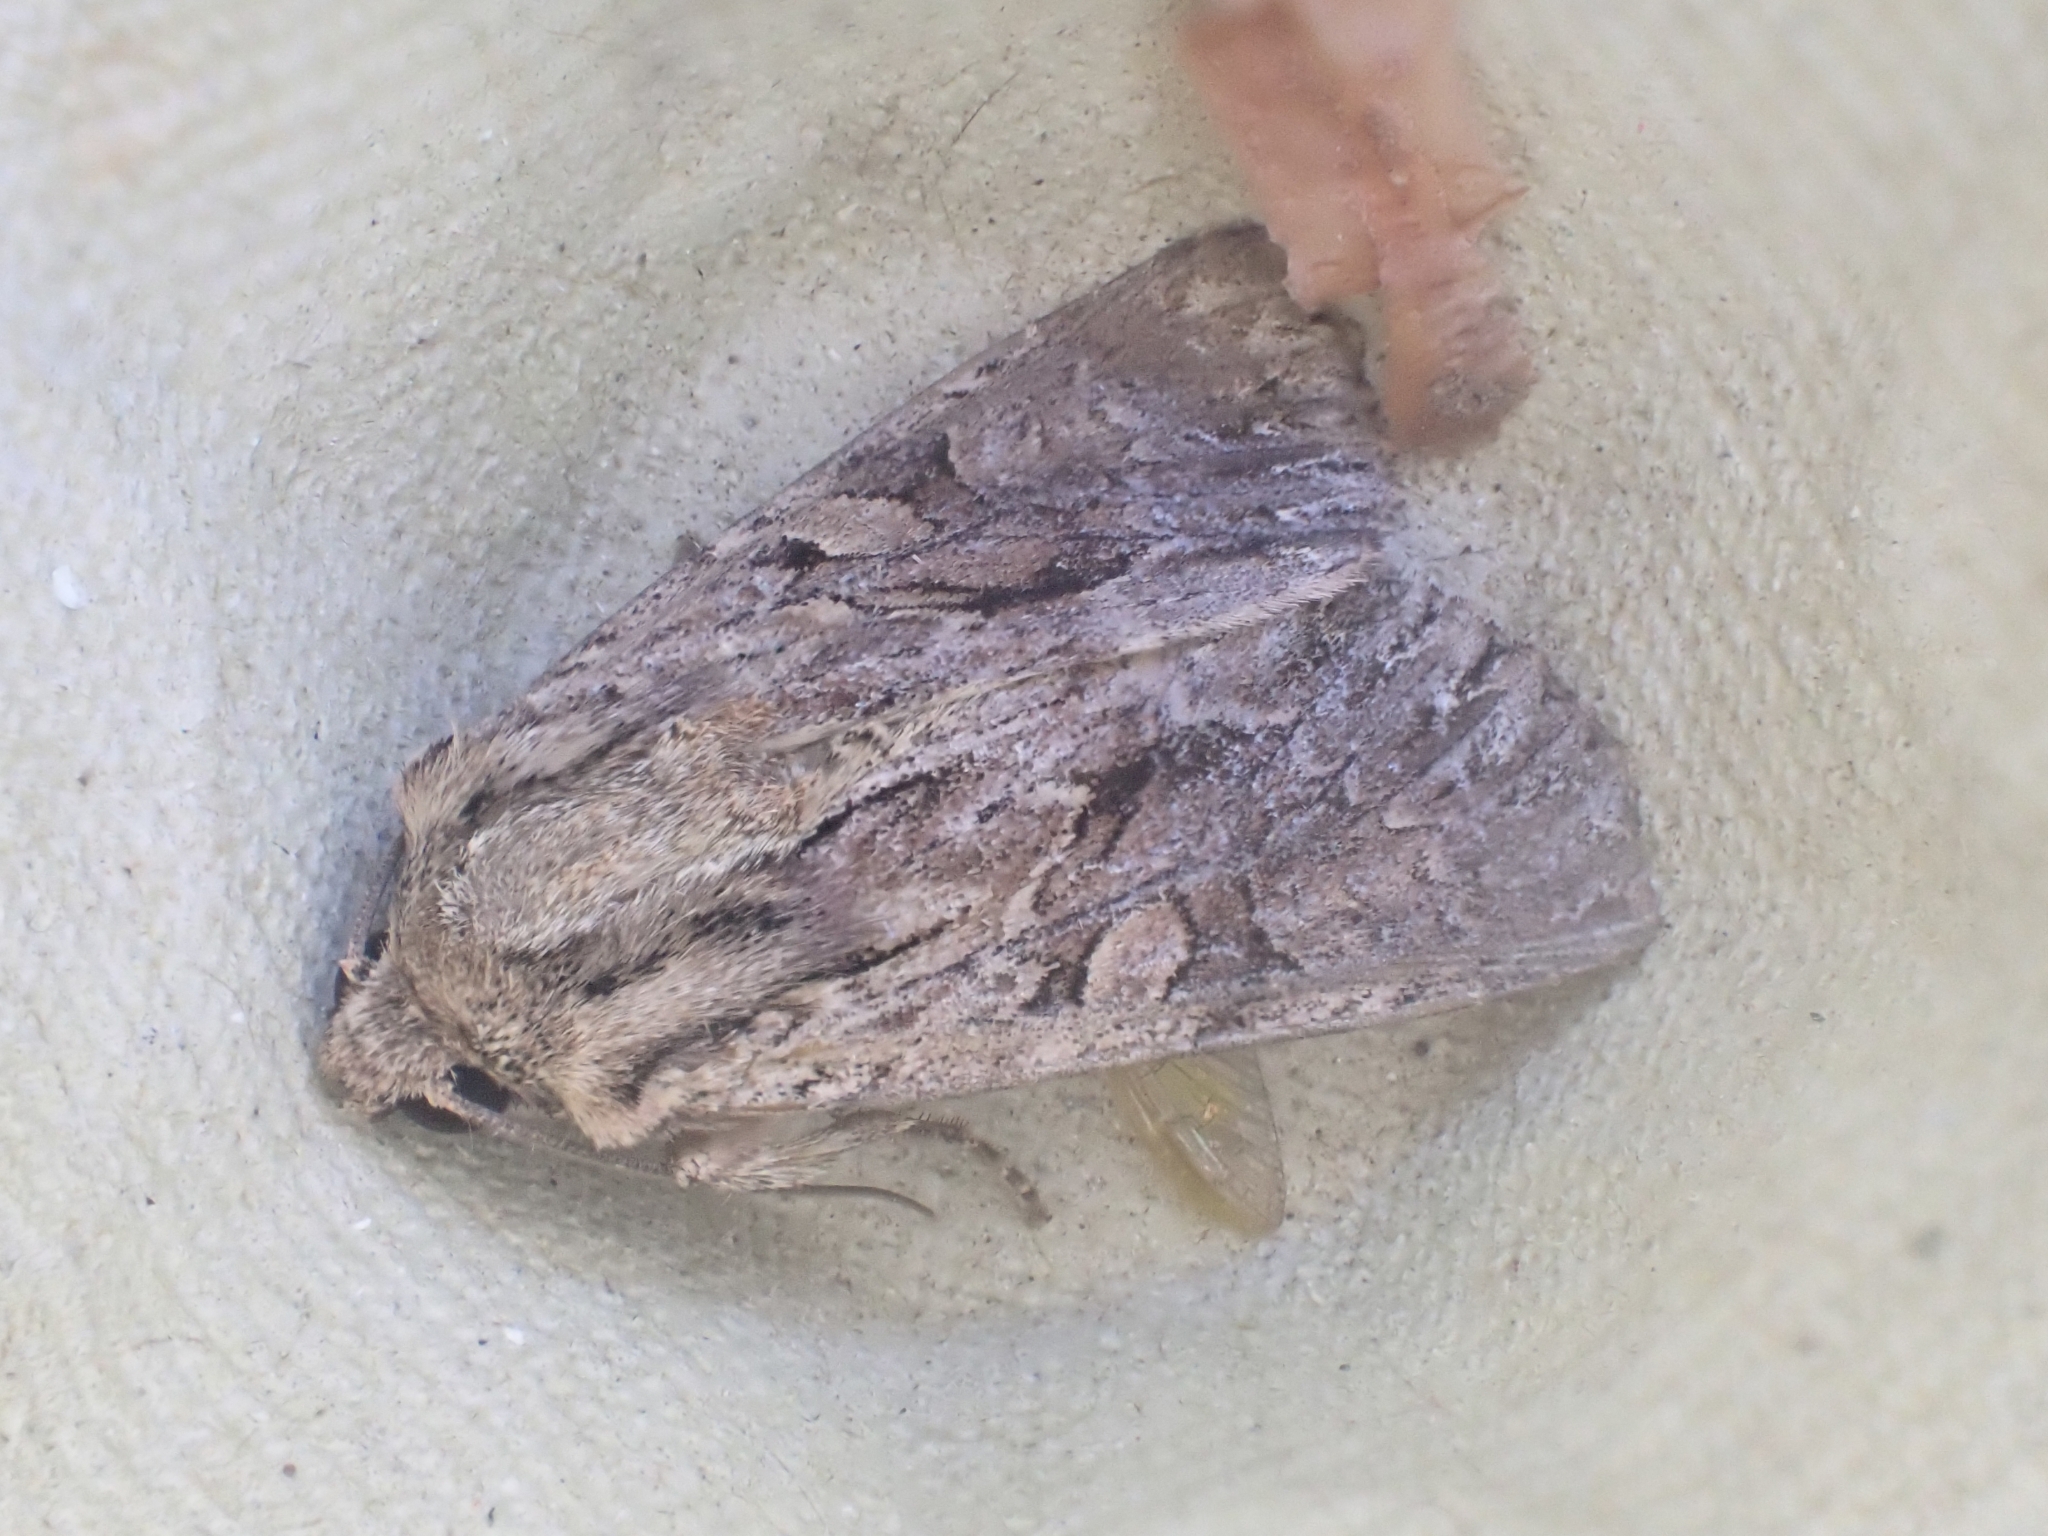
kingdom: Animalia
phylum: Arthropoda
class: Insecta
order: Lepidoptera
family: Noctuidae
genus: Apamea
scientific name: Apamea monoglypha
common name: Dark arches
